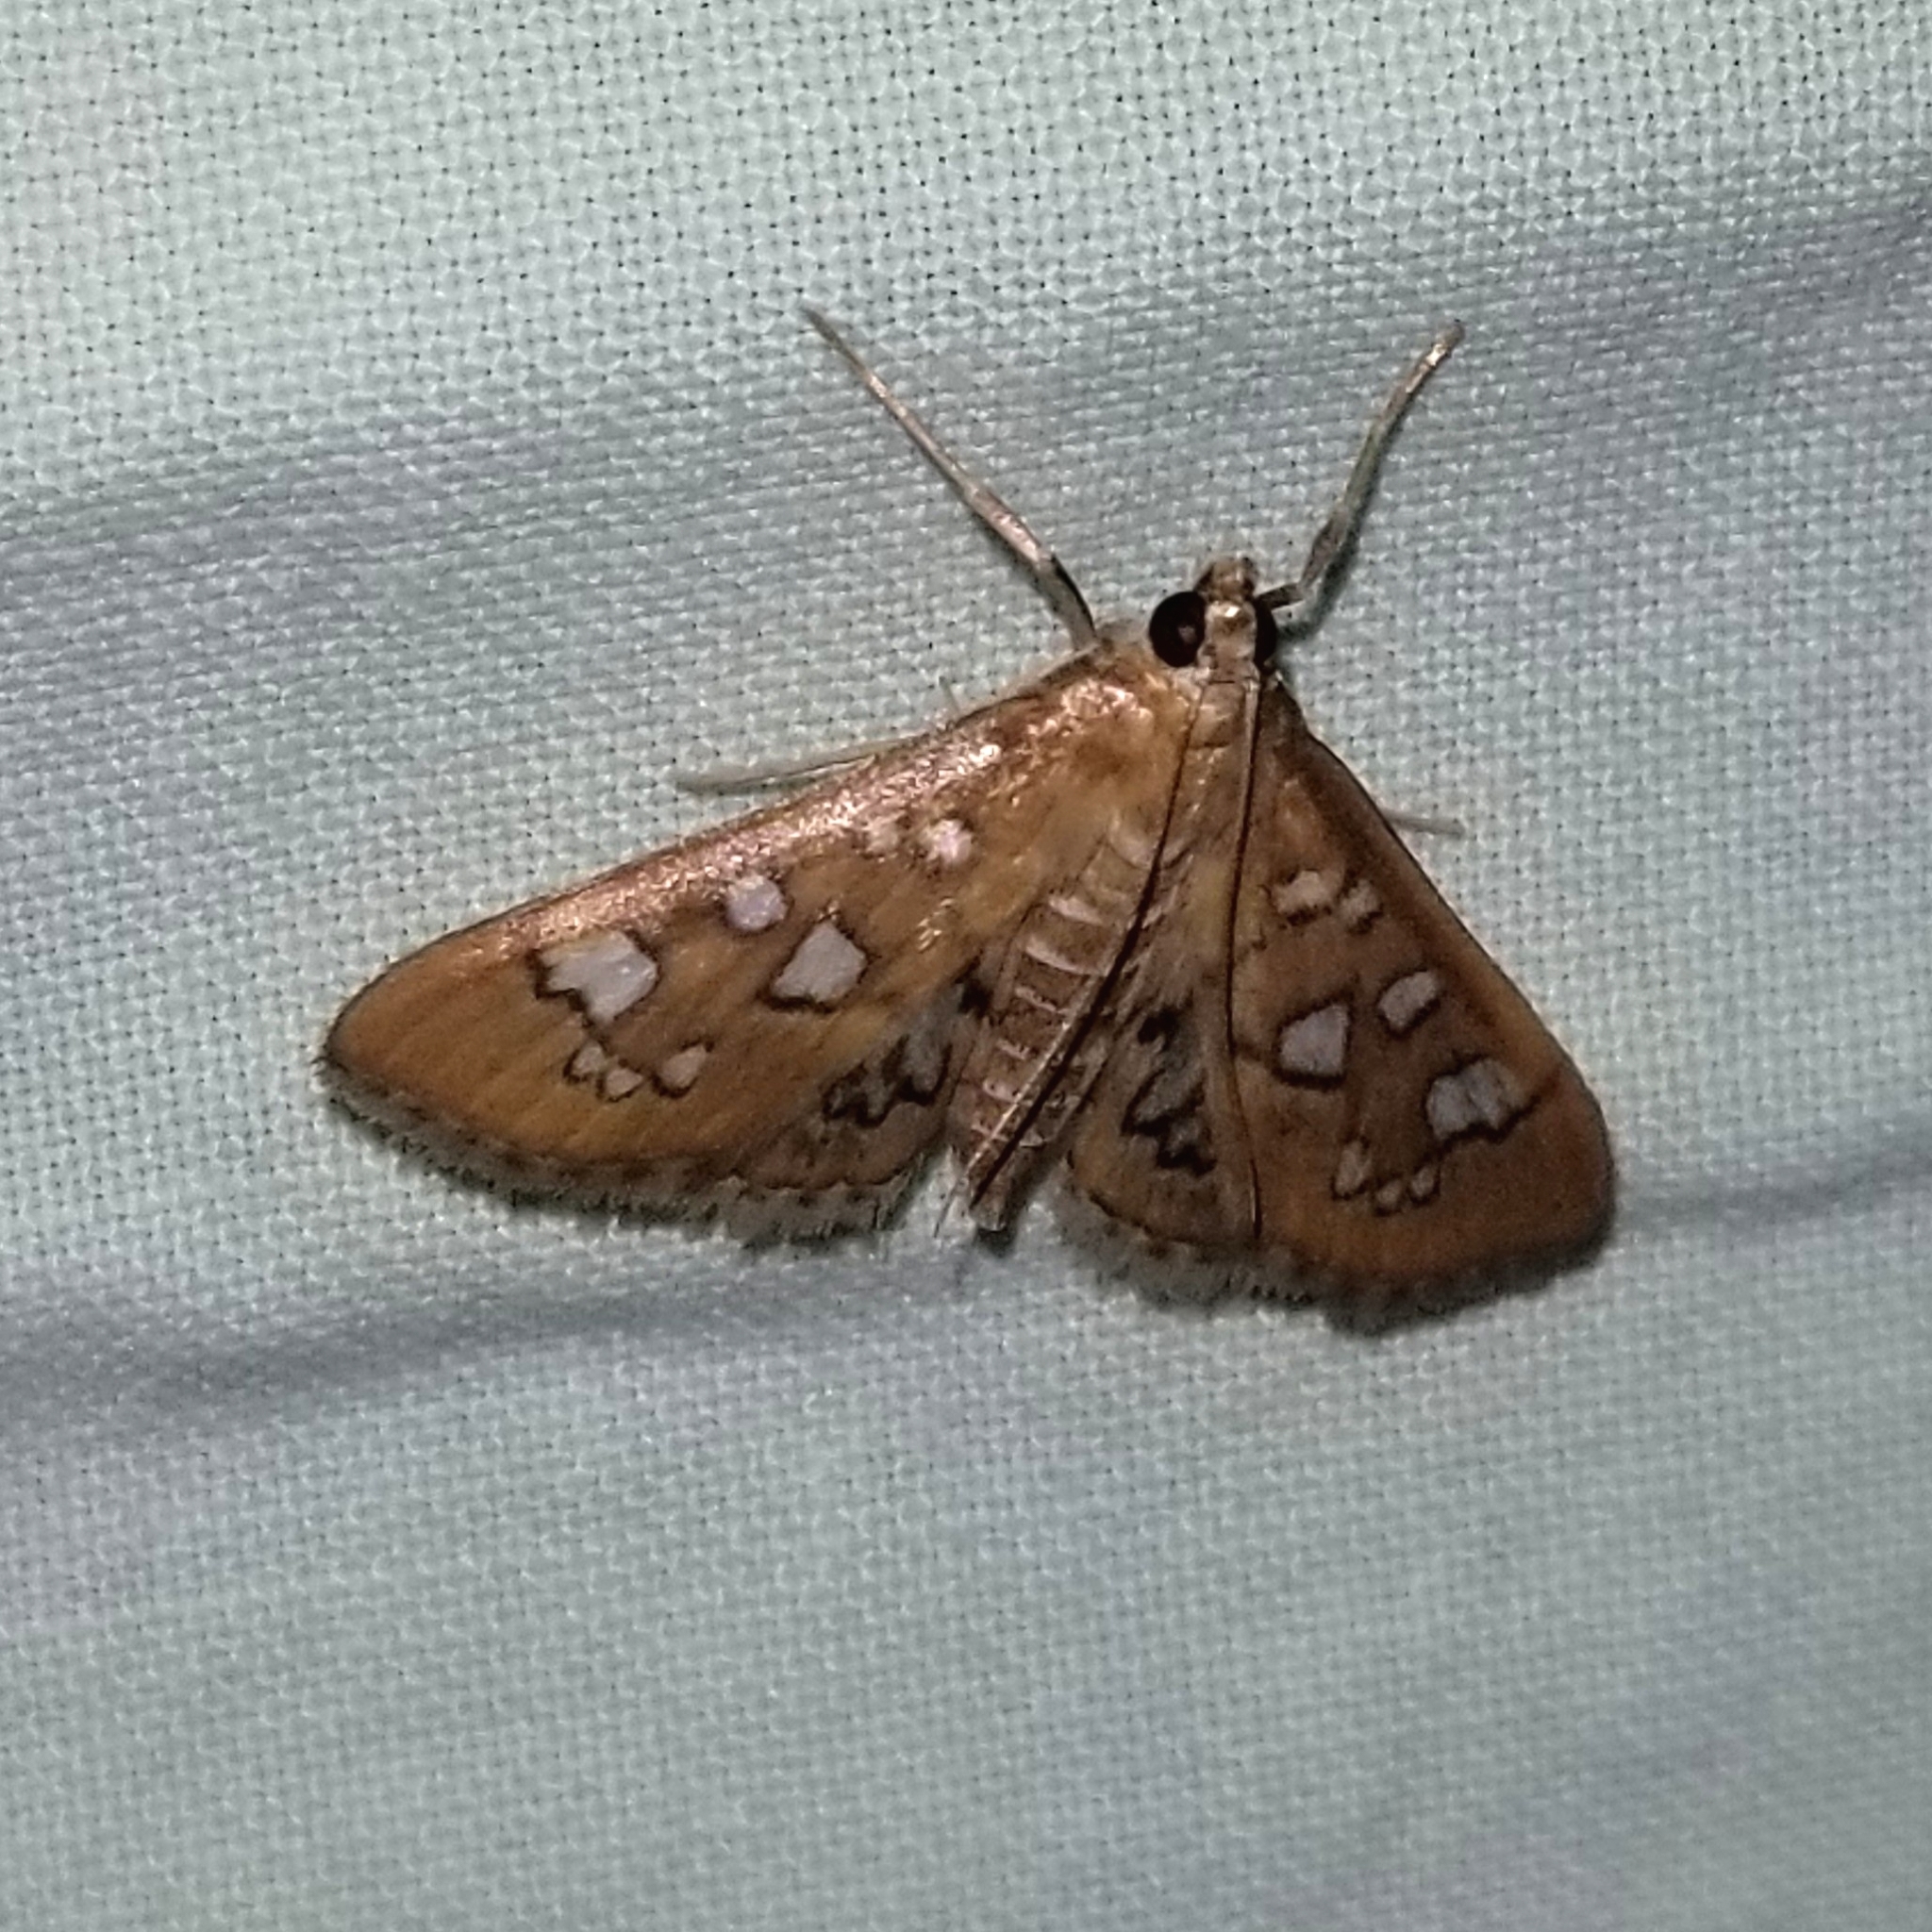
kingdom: Animalia
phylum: Arthropoda
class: Insecta
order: Lepidoptera
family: Crambidae
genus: Samea
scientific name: Samea baccatalis
